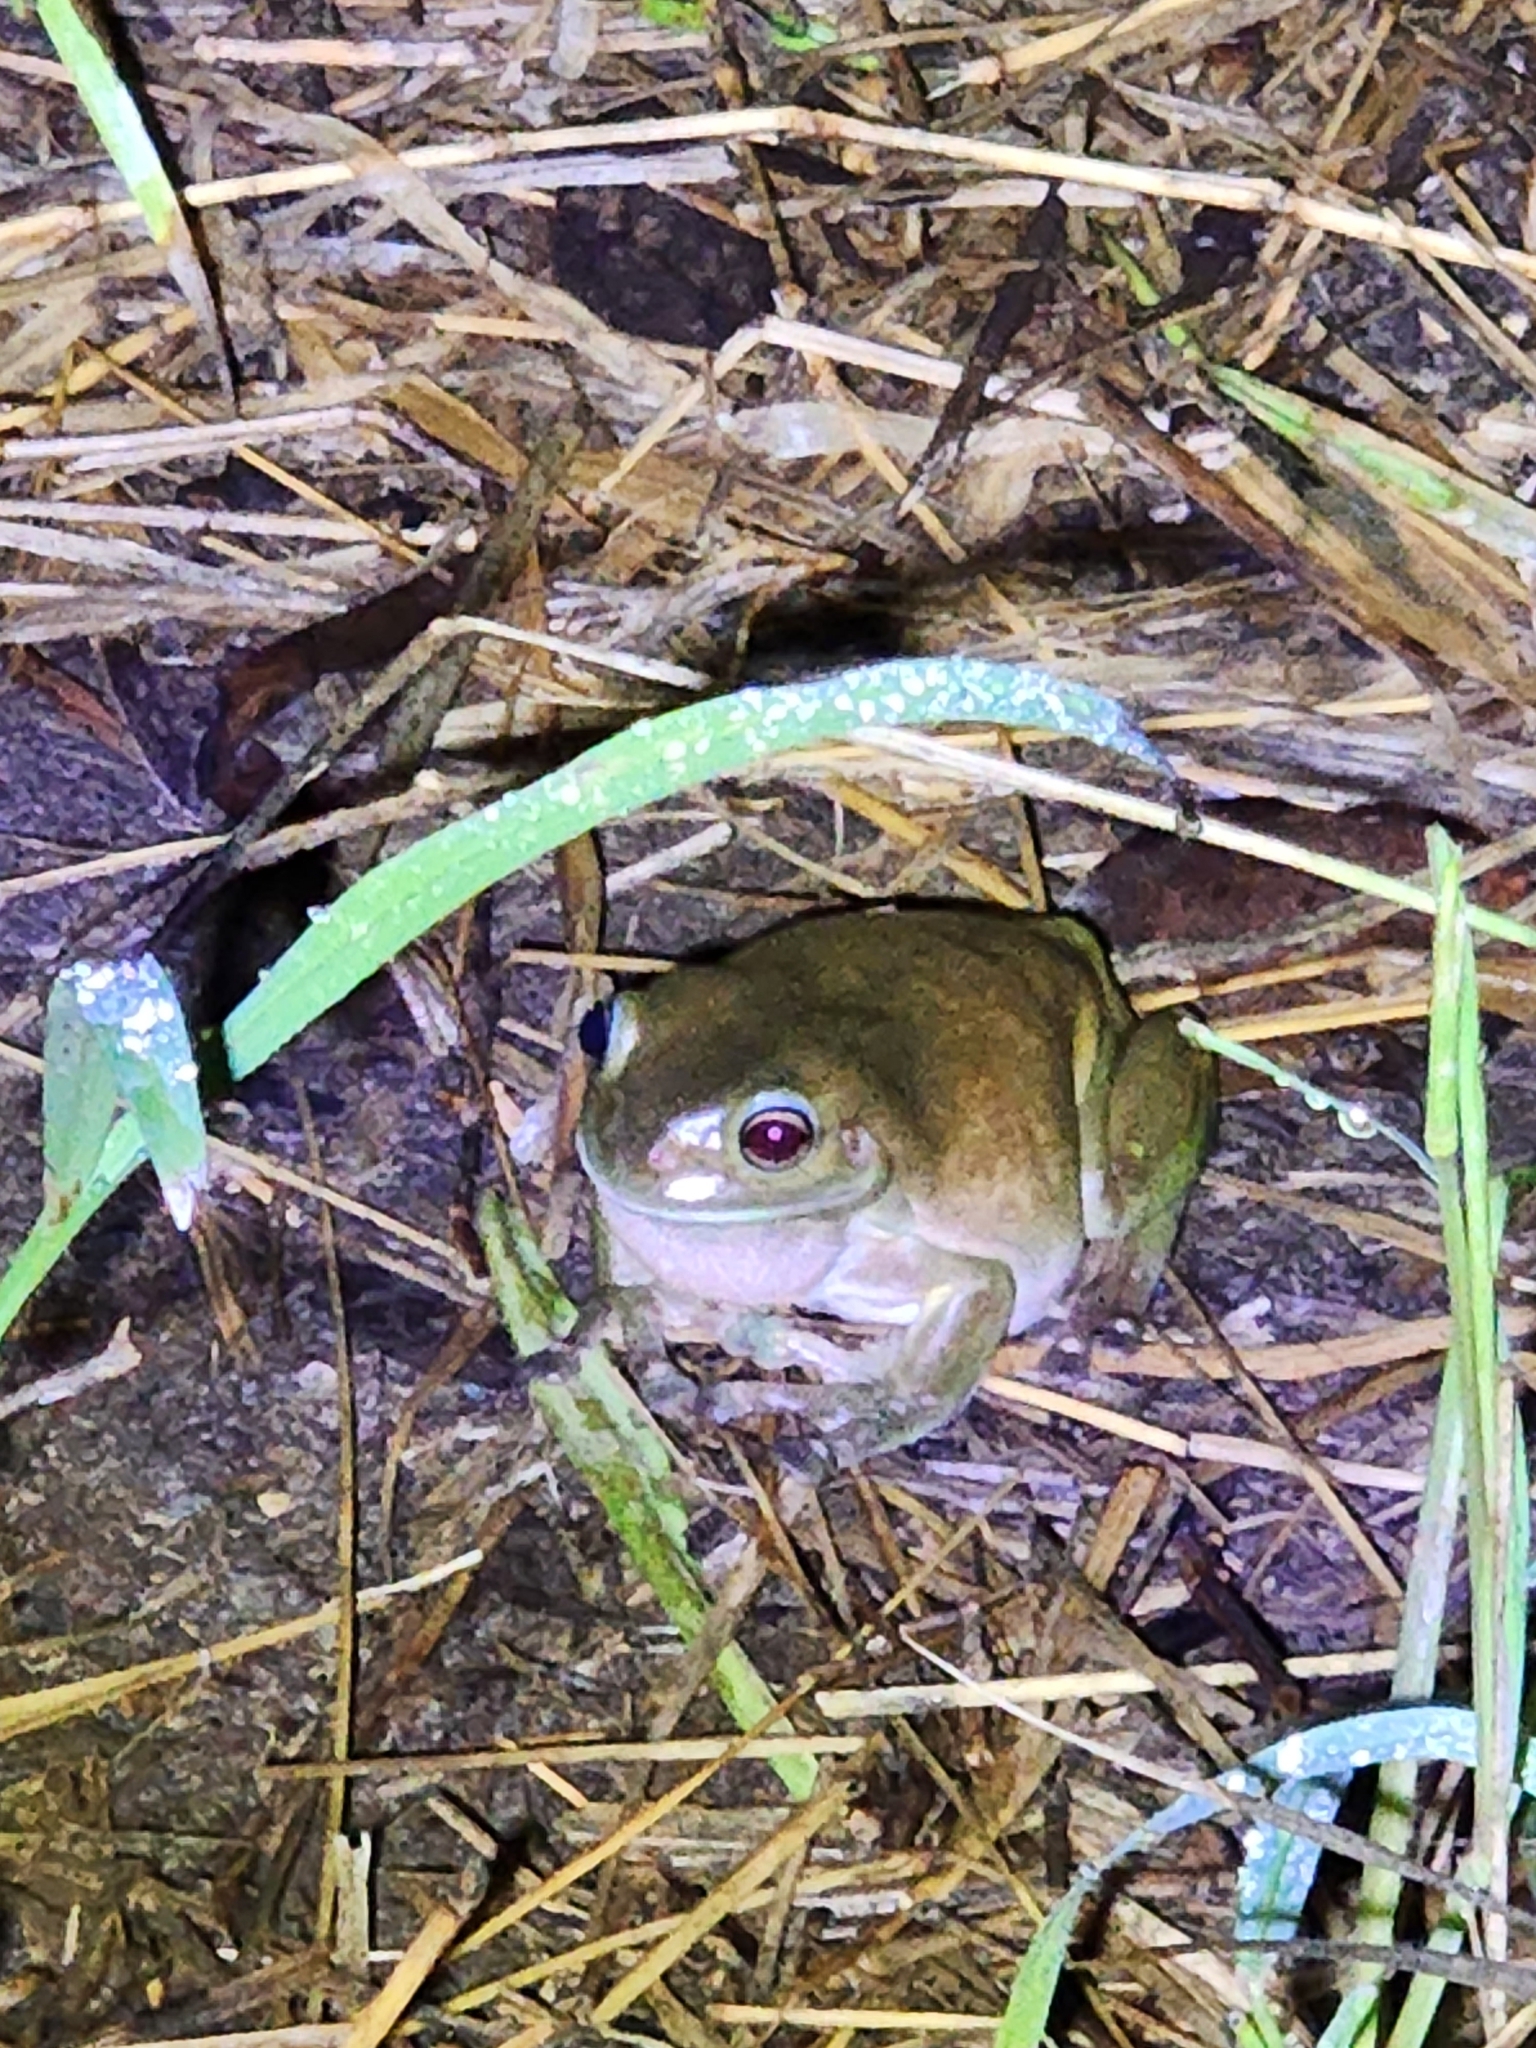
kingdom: Animalia
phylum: Chordata
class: Amphibia
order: Anura
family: Pelodryadidae
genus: Ranoidea
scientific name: Ranoidea caerulea
